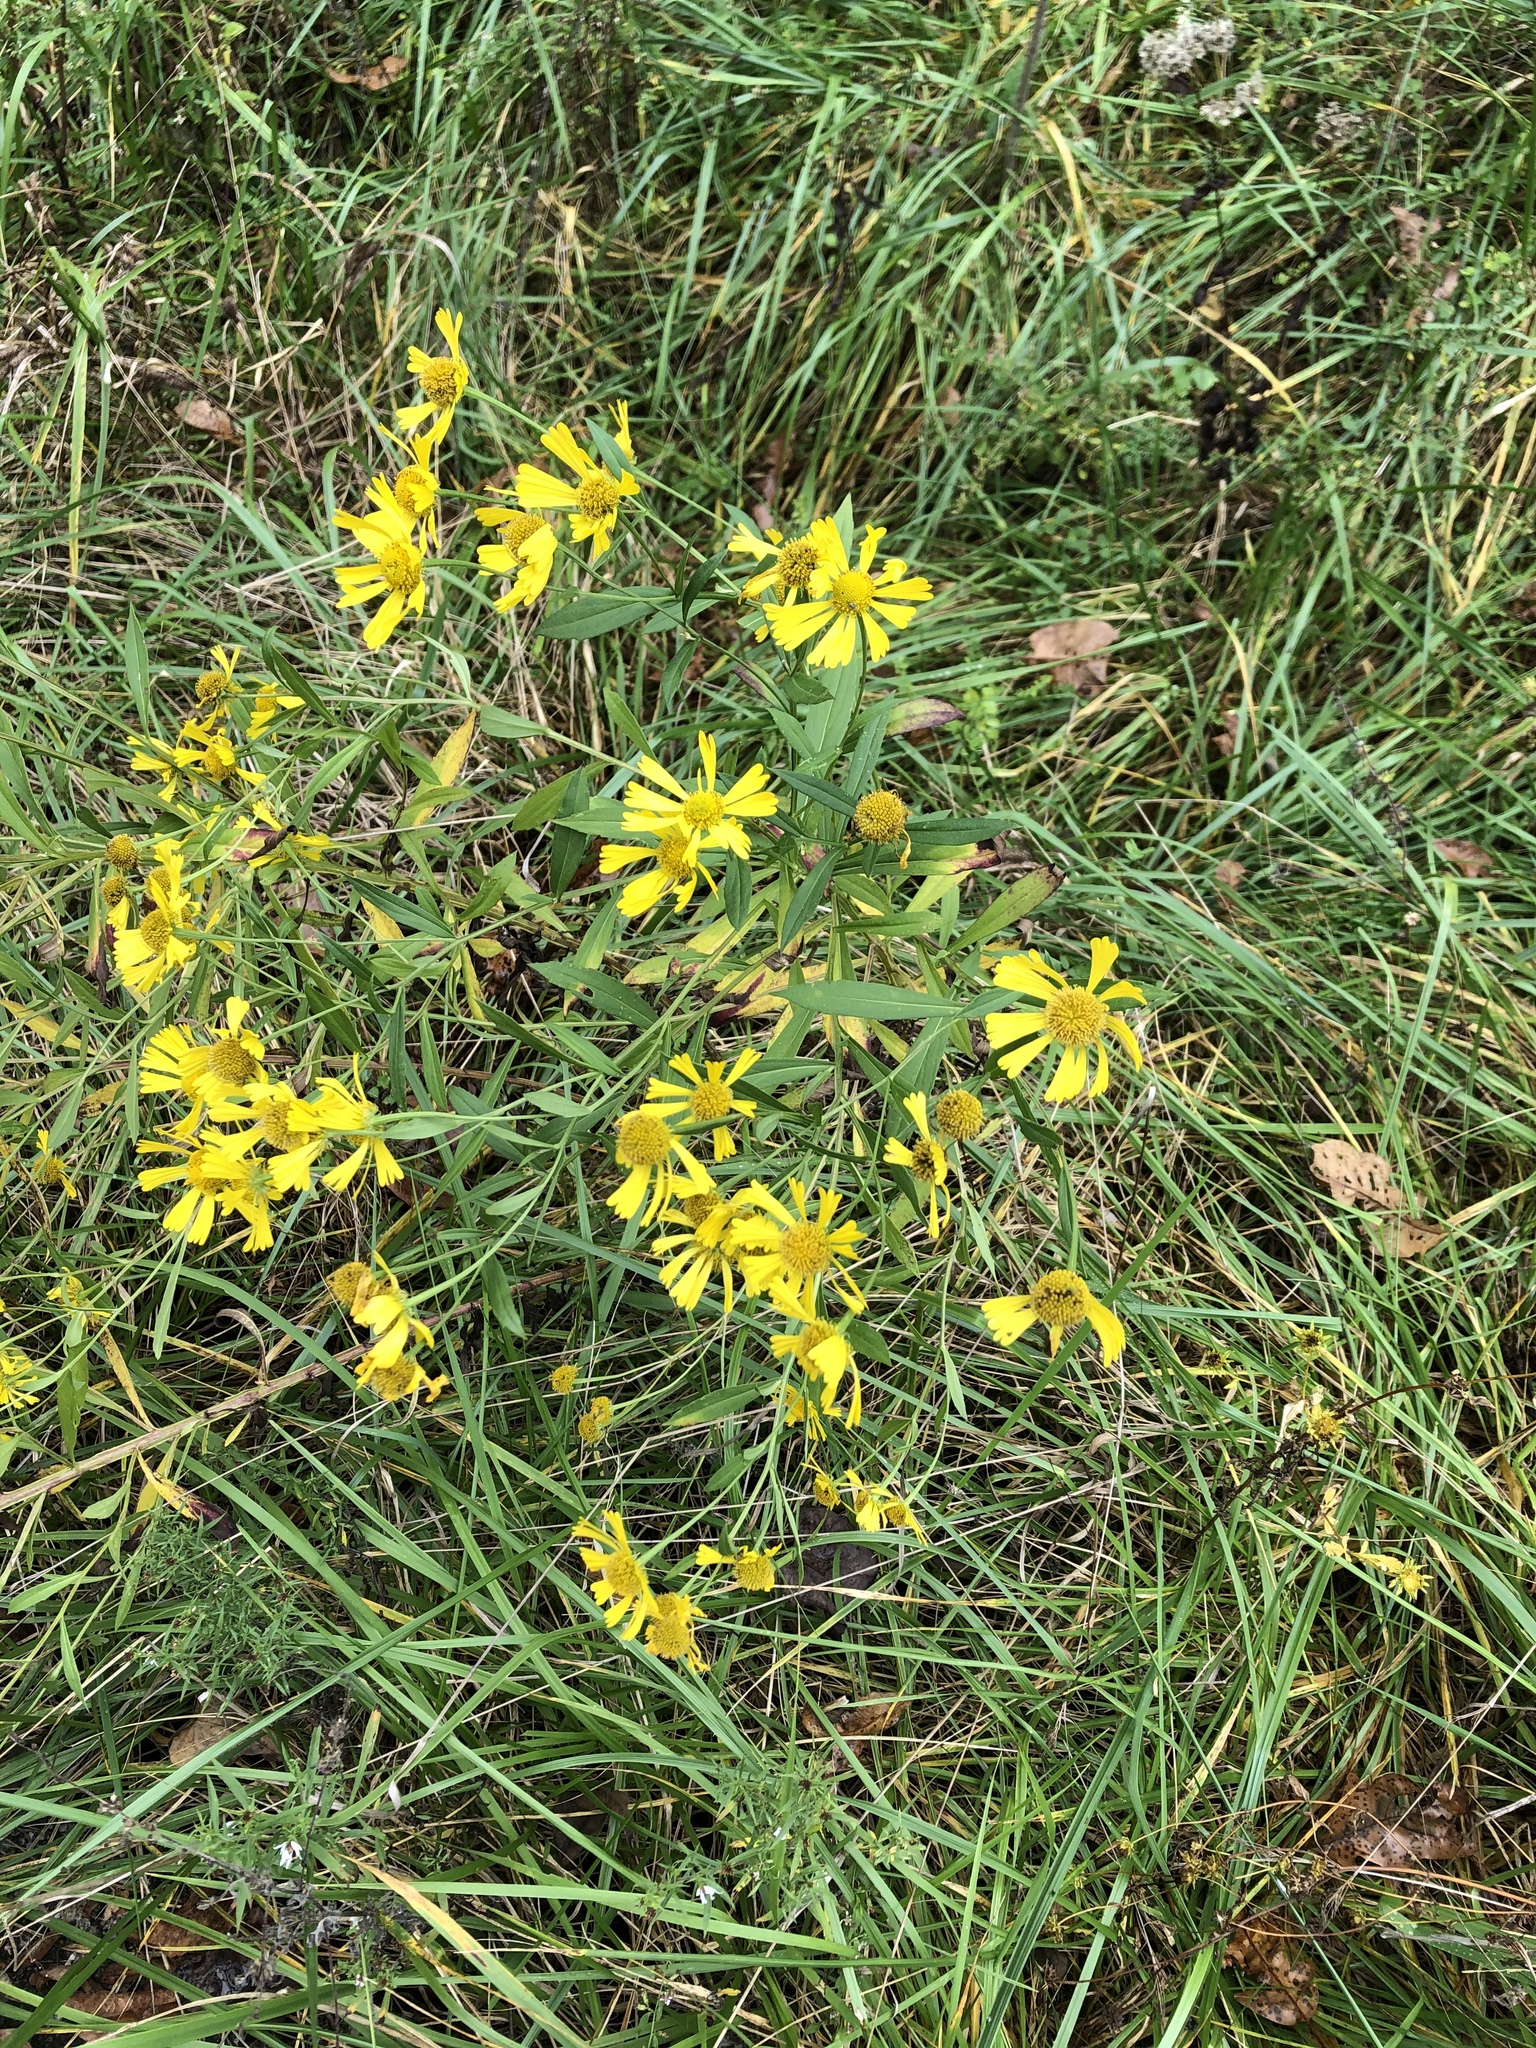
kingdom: Plantae
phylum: Tracheophyta
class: Magnoliopsida
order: Asterales
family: Asteraceae
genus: Helenium
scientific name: Helenium autumnale
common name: Sneezeweed
